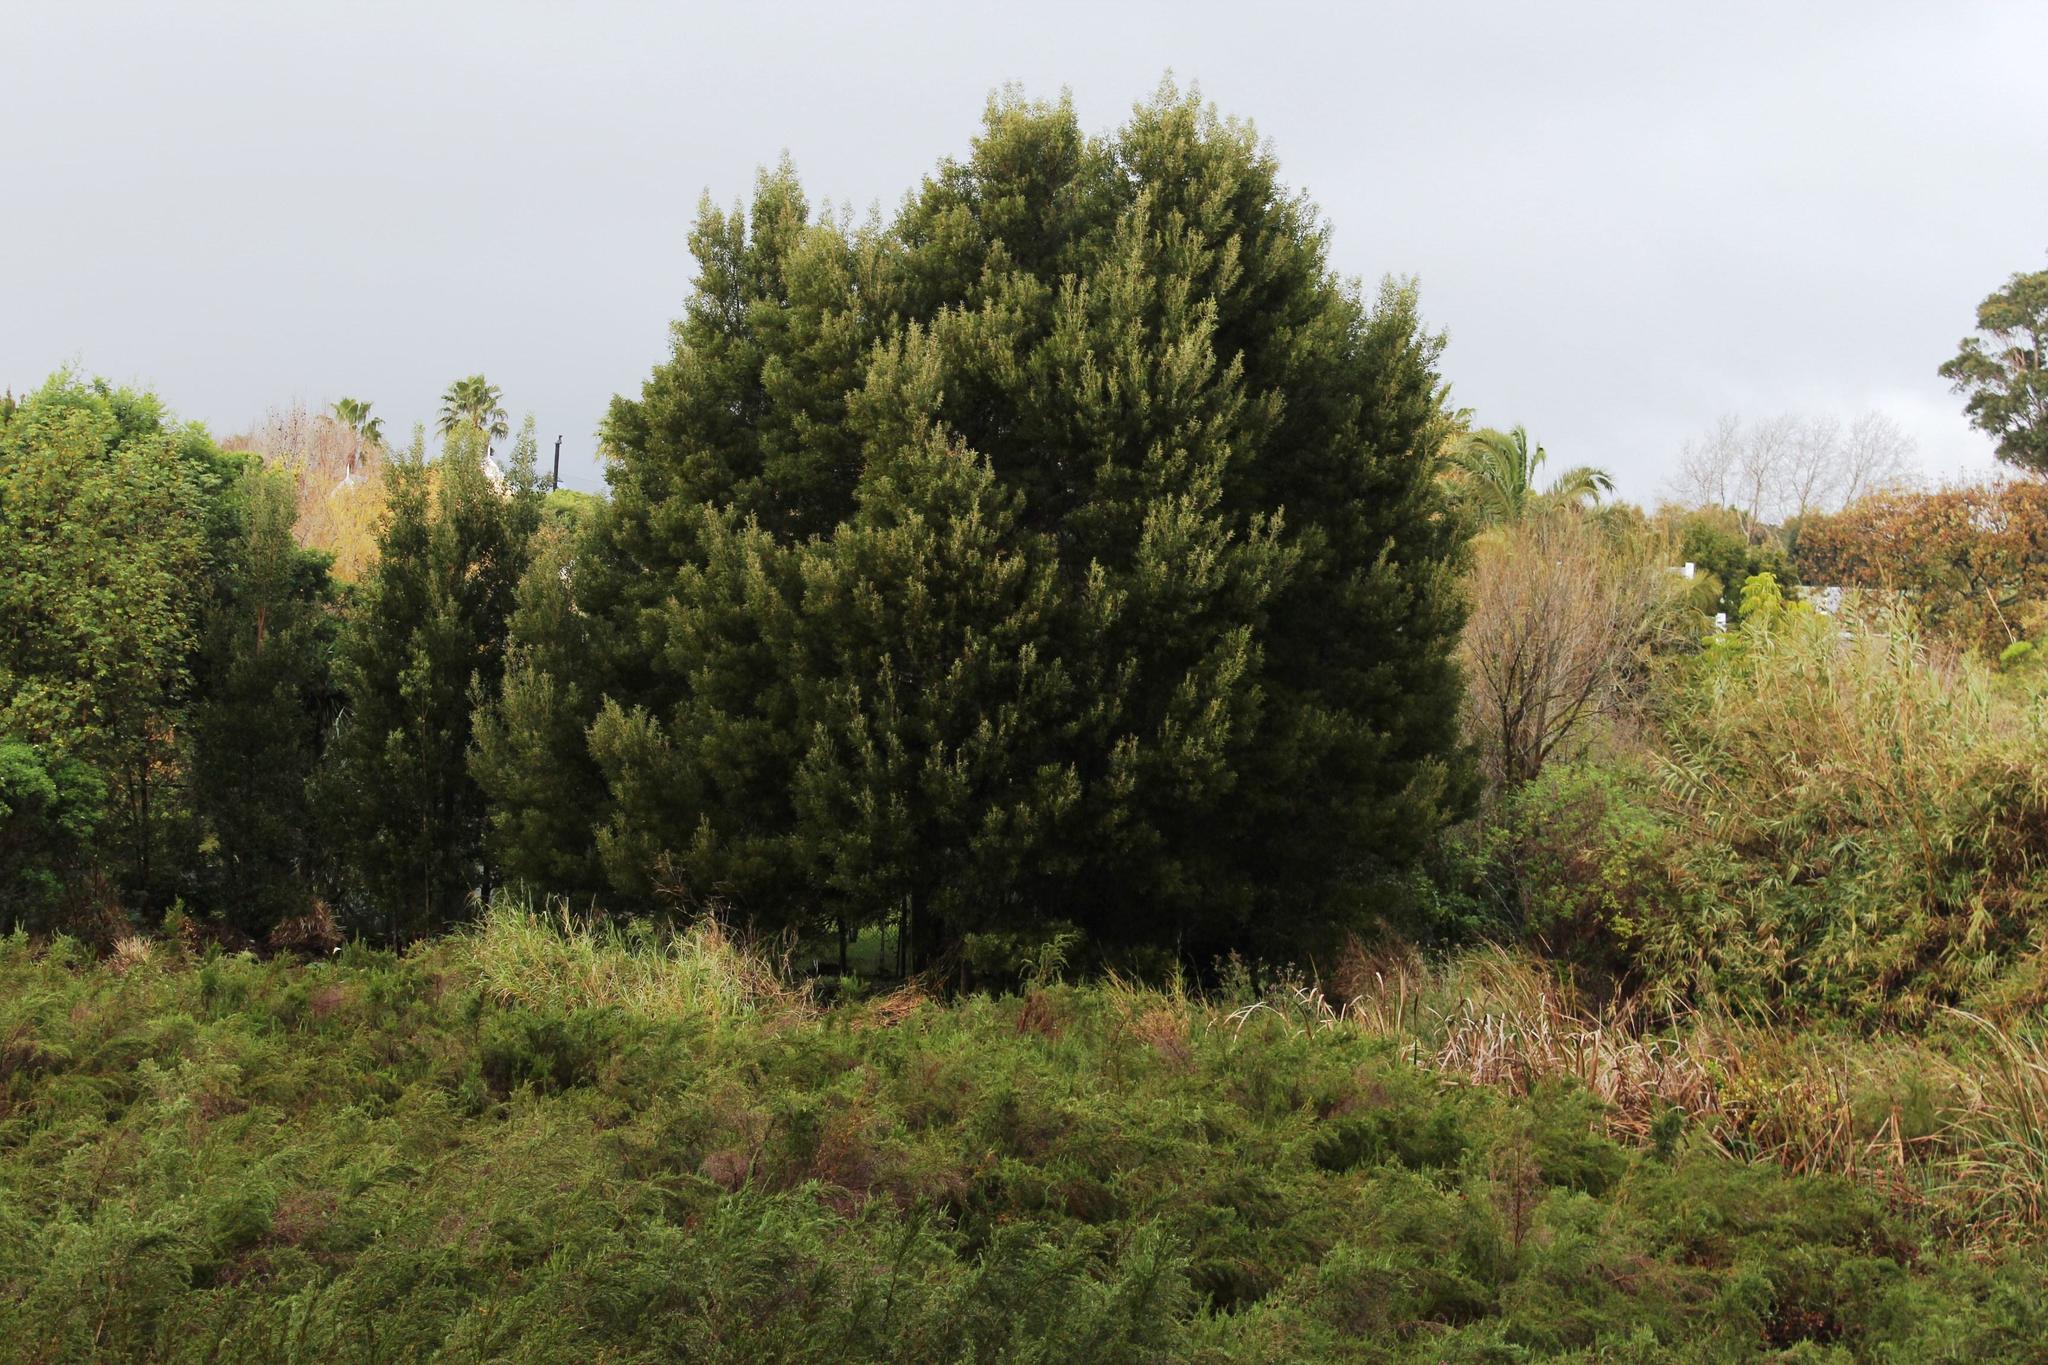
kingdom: Plantae
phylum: Tracheophyta
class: Magnoliopsida
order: Fabales
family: Fabaceae
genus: Acacia
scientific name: Acacia melanoxylon
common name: Blackwood
